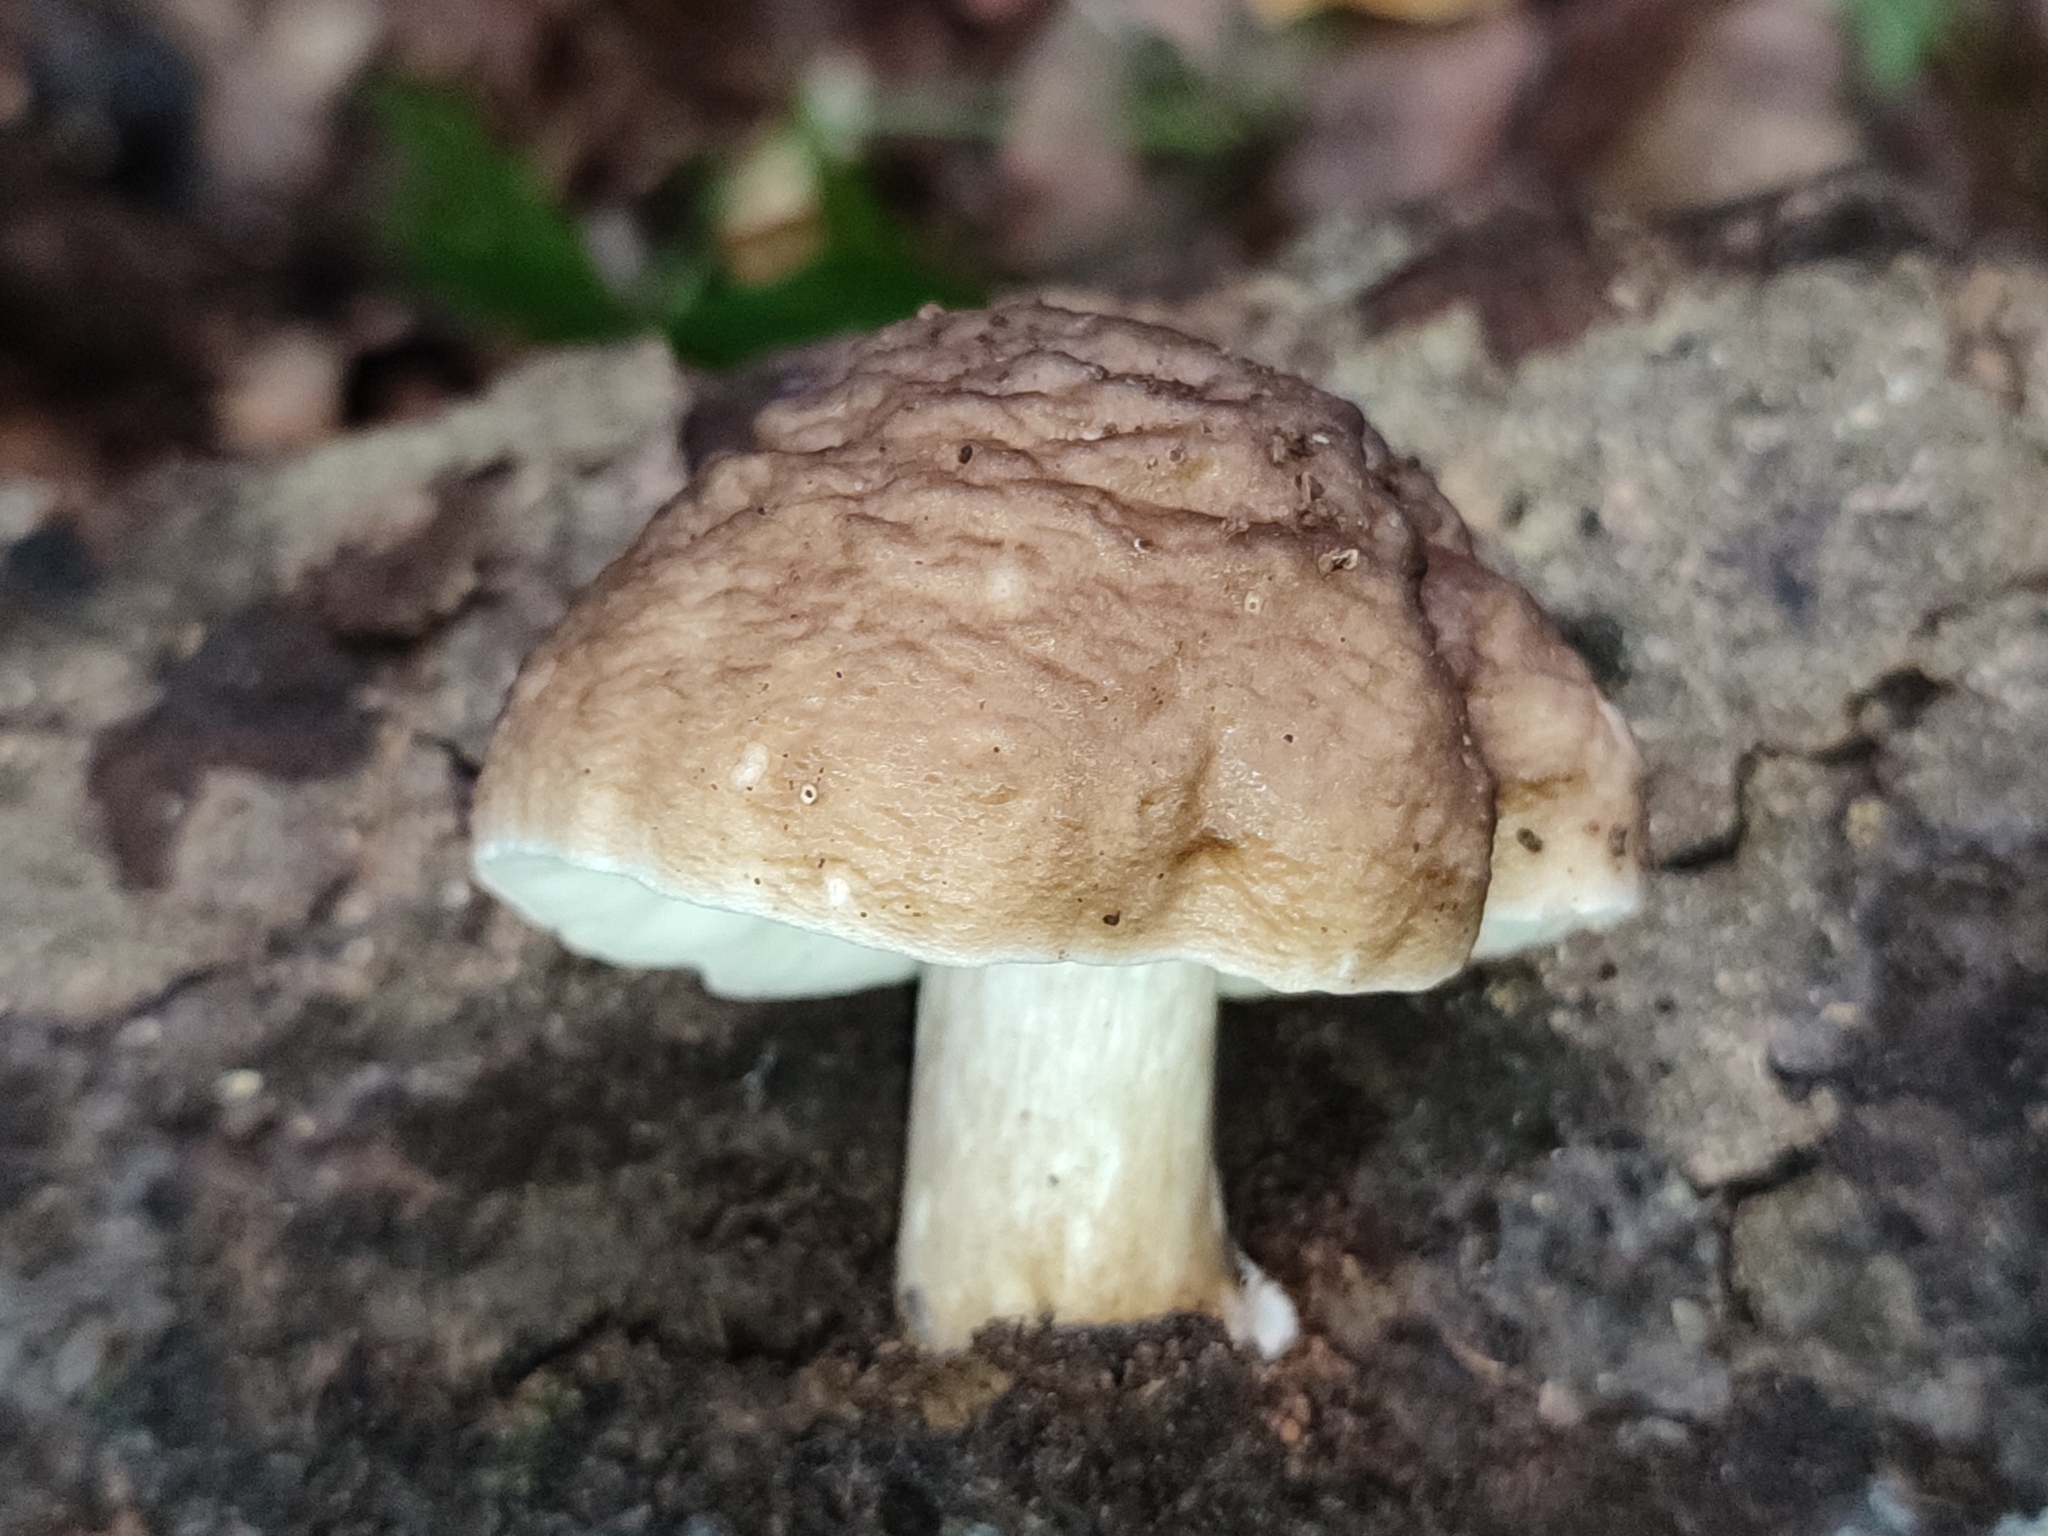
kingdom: Fungi
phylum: Basidiomycota
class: Agaricomycetes
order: Agaricales
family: Pluteaceae
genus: Pluteus
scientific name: Pluteus cervinus
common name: Deer shield
